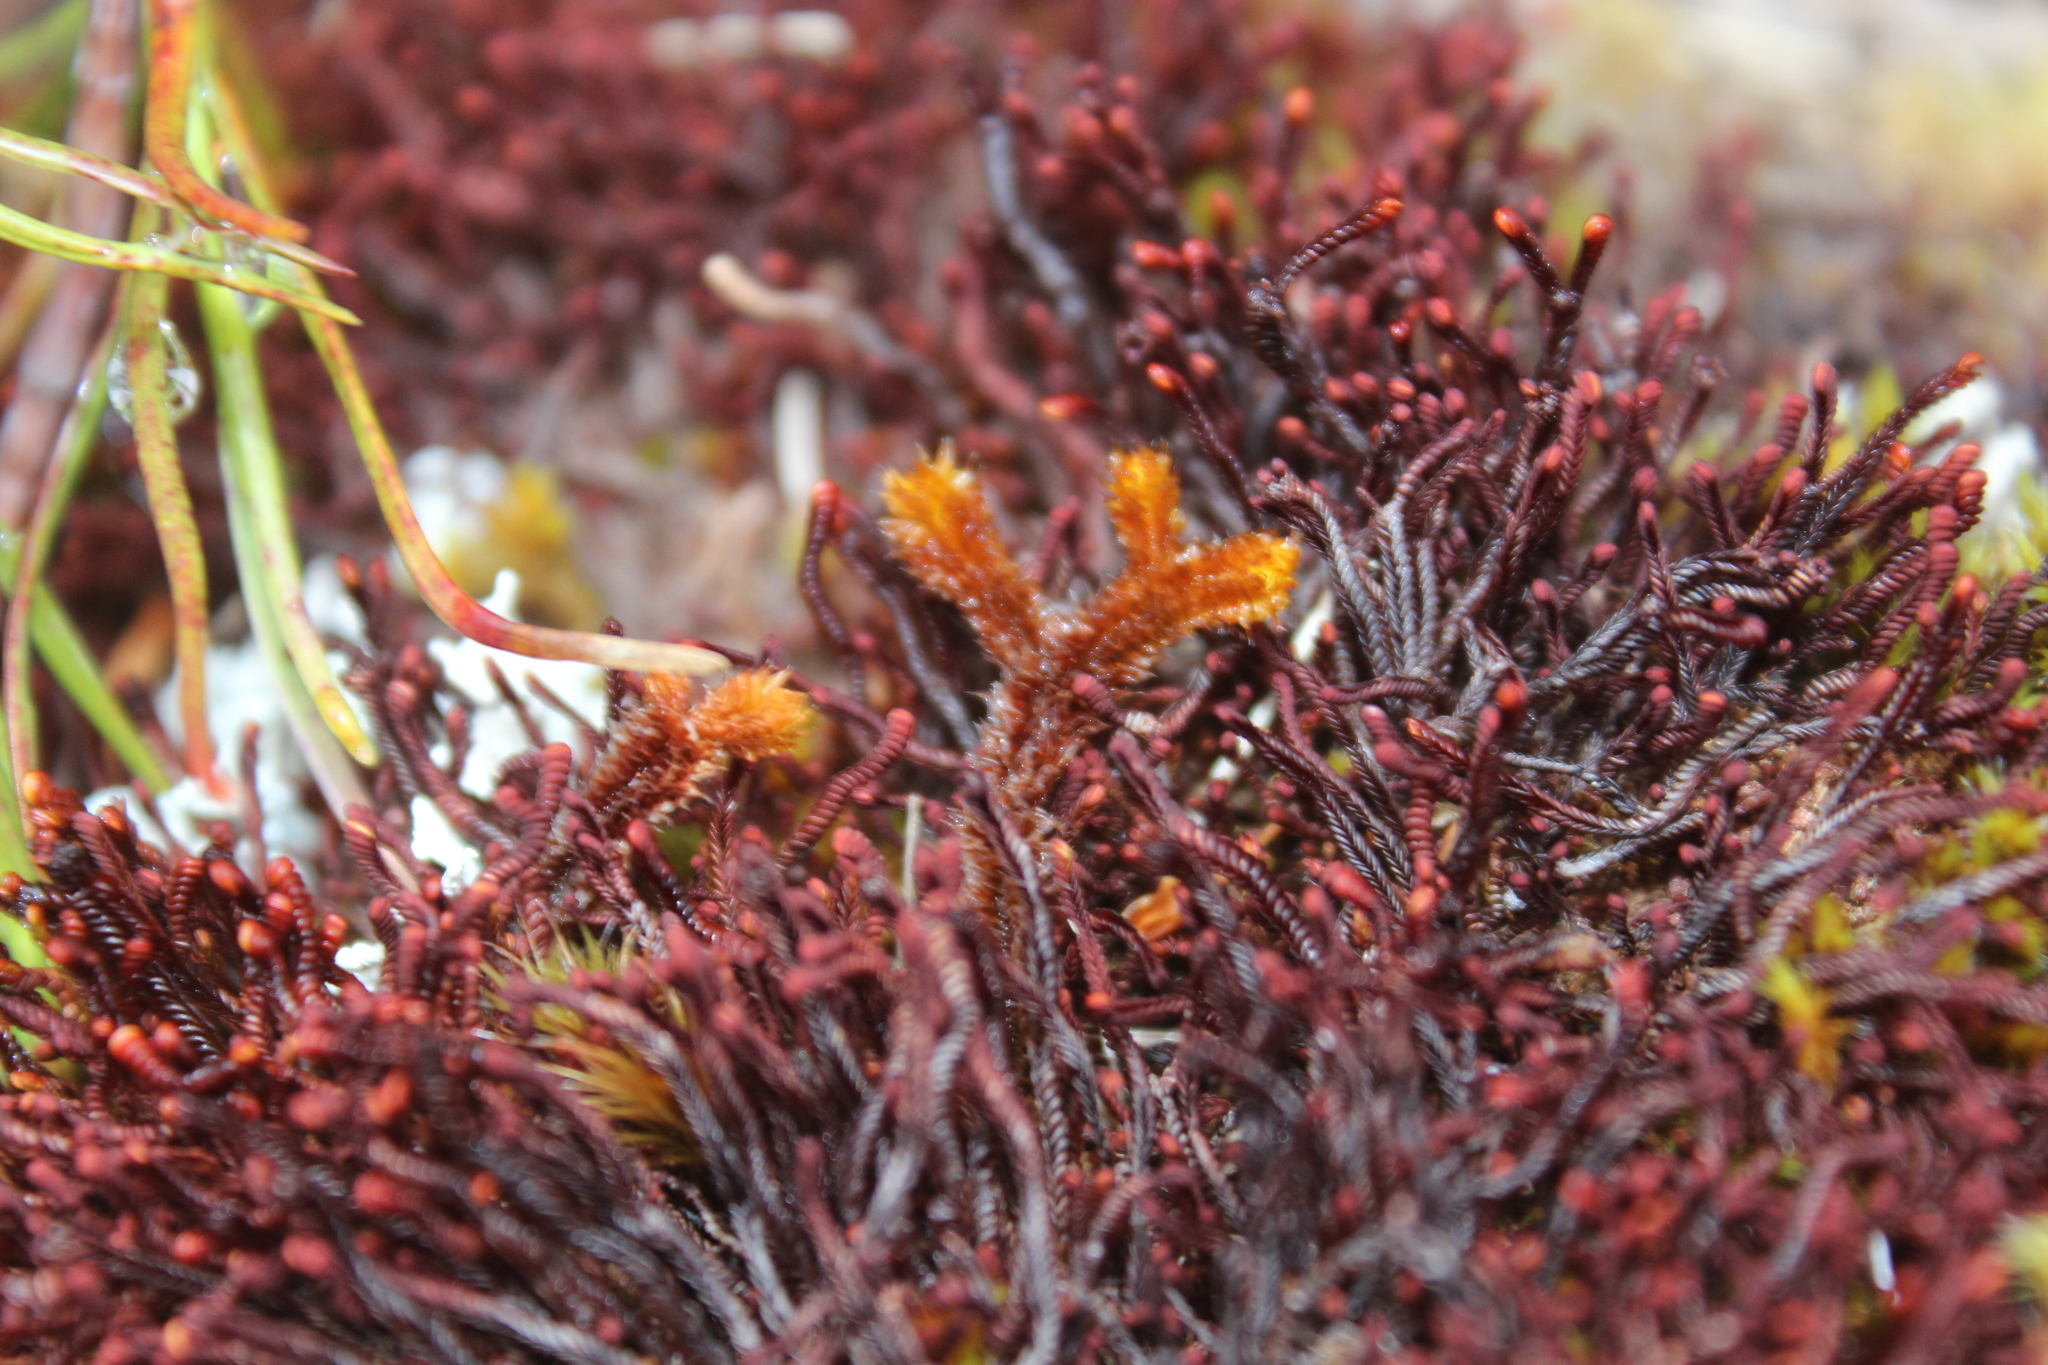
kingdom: Plantae
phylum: Marchantiophyta
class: Jungermanniopsida
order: Jungermanniales
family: Adelanthaceae
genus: Syzygiella
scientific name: Syzygiella colorata
